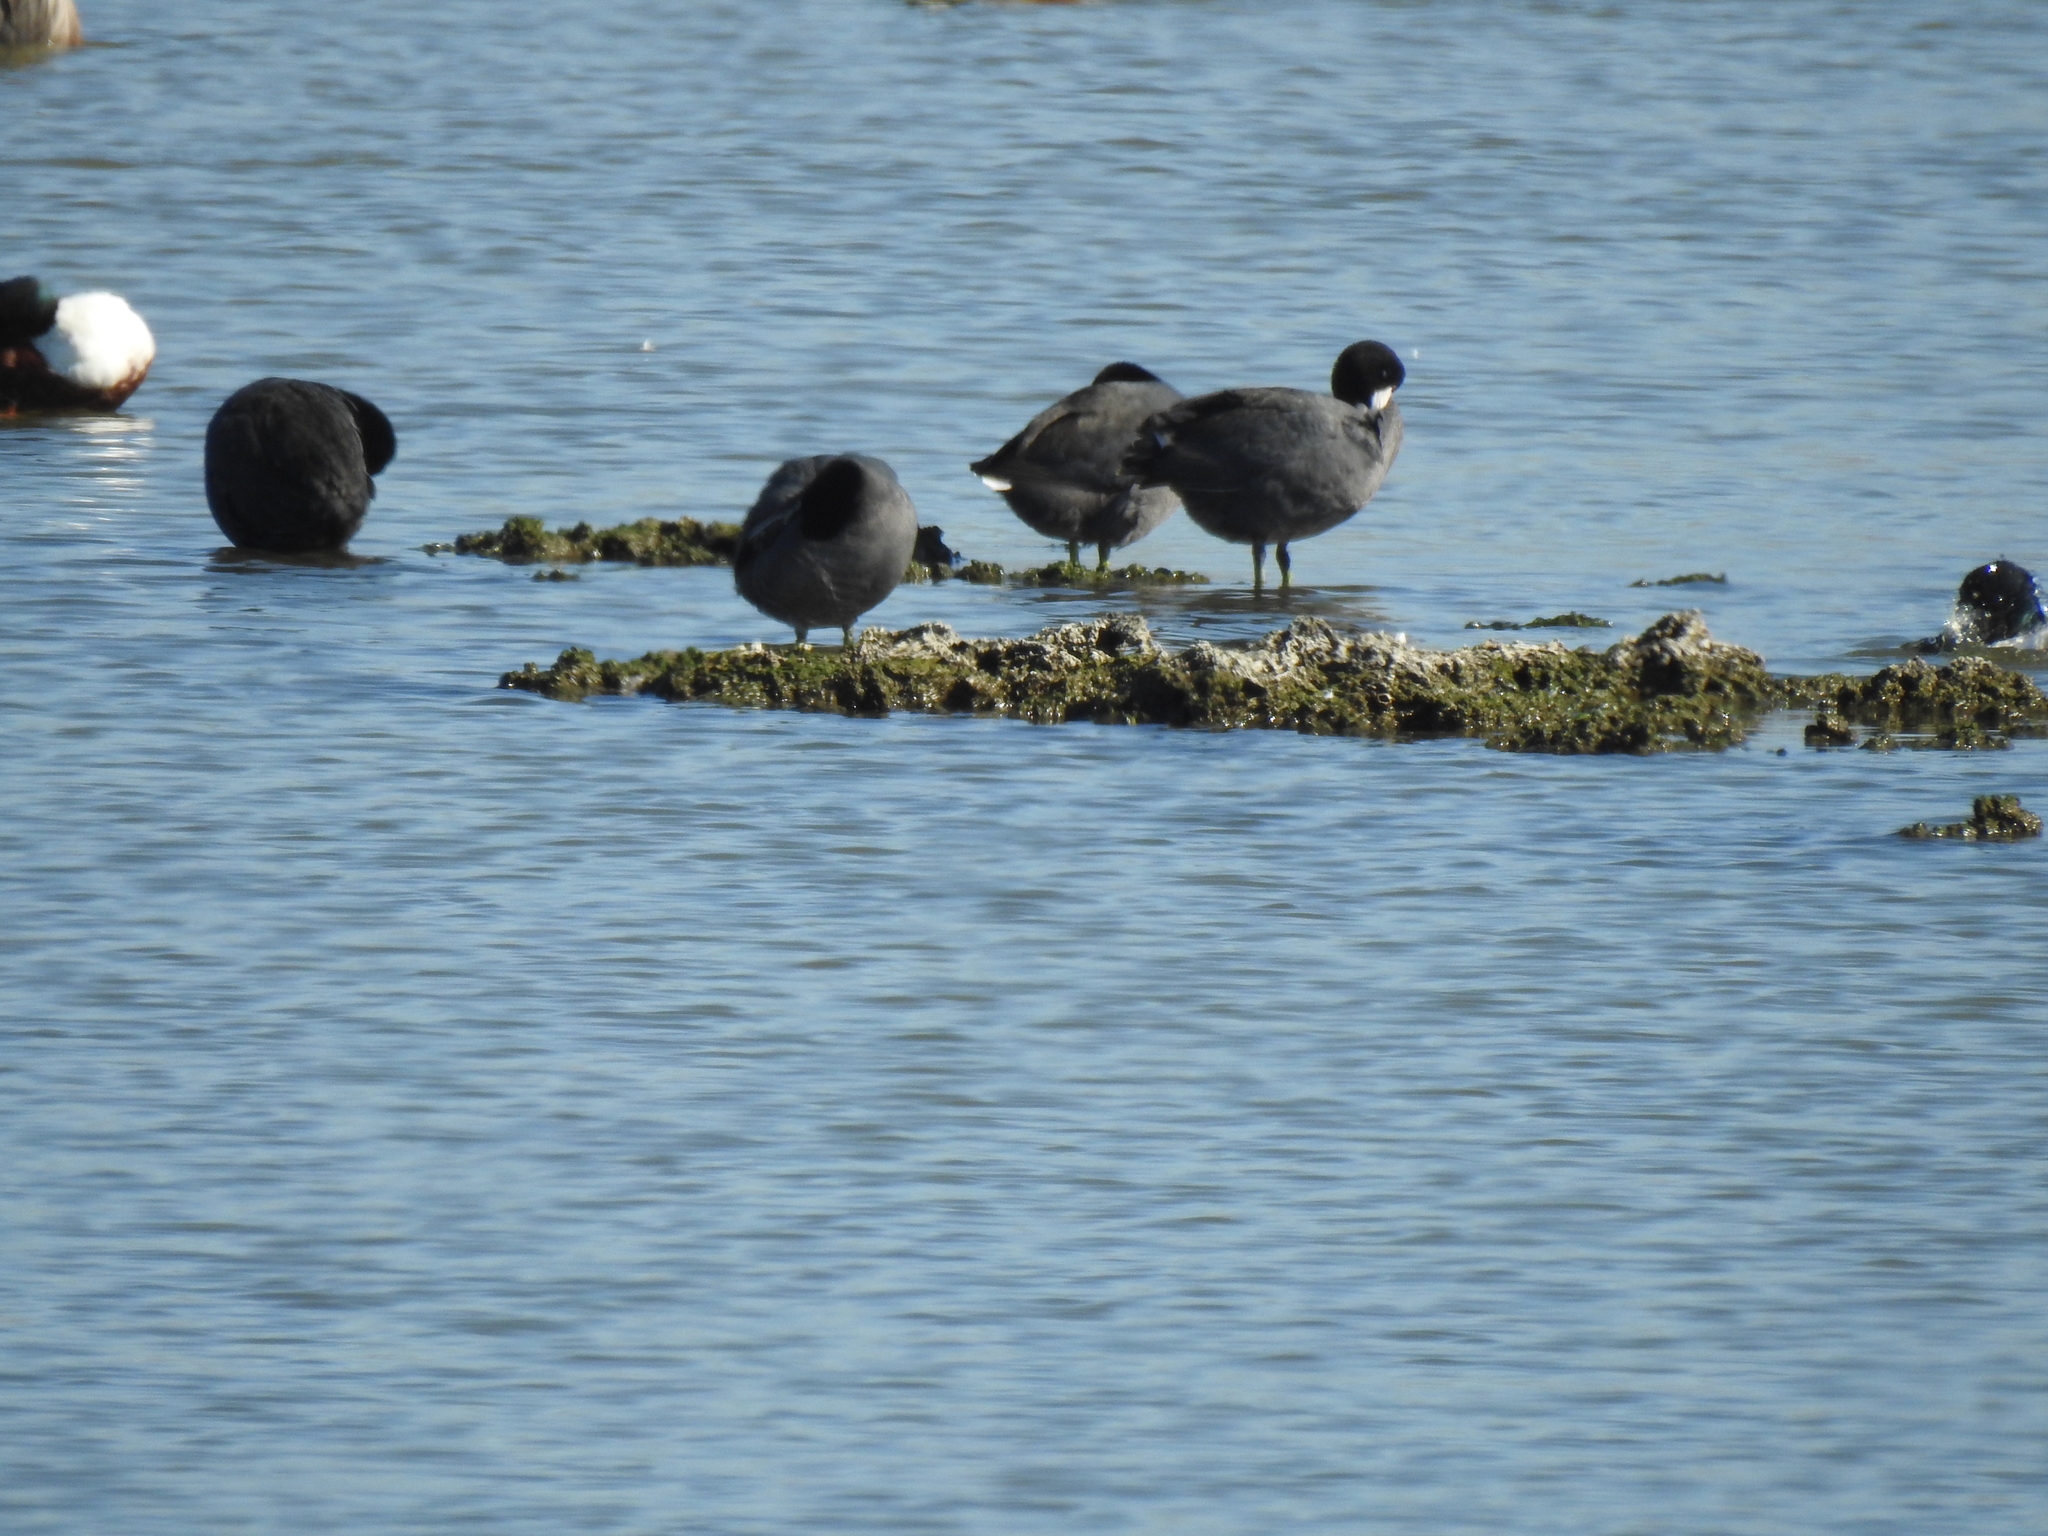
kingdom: Animalia
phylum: Chordata
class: Aves
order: Gruiformes
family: Rallidae
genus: Fulica
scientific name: Fulica americana
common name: American coot
